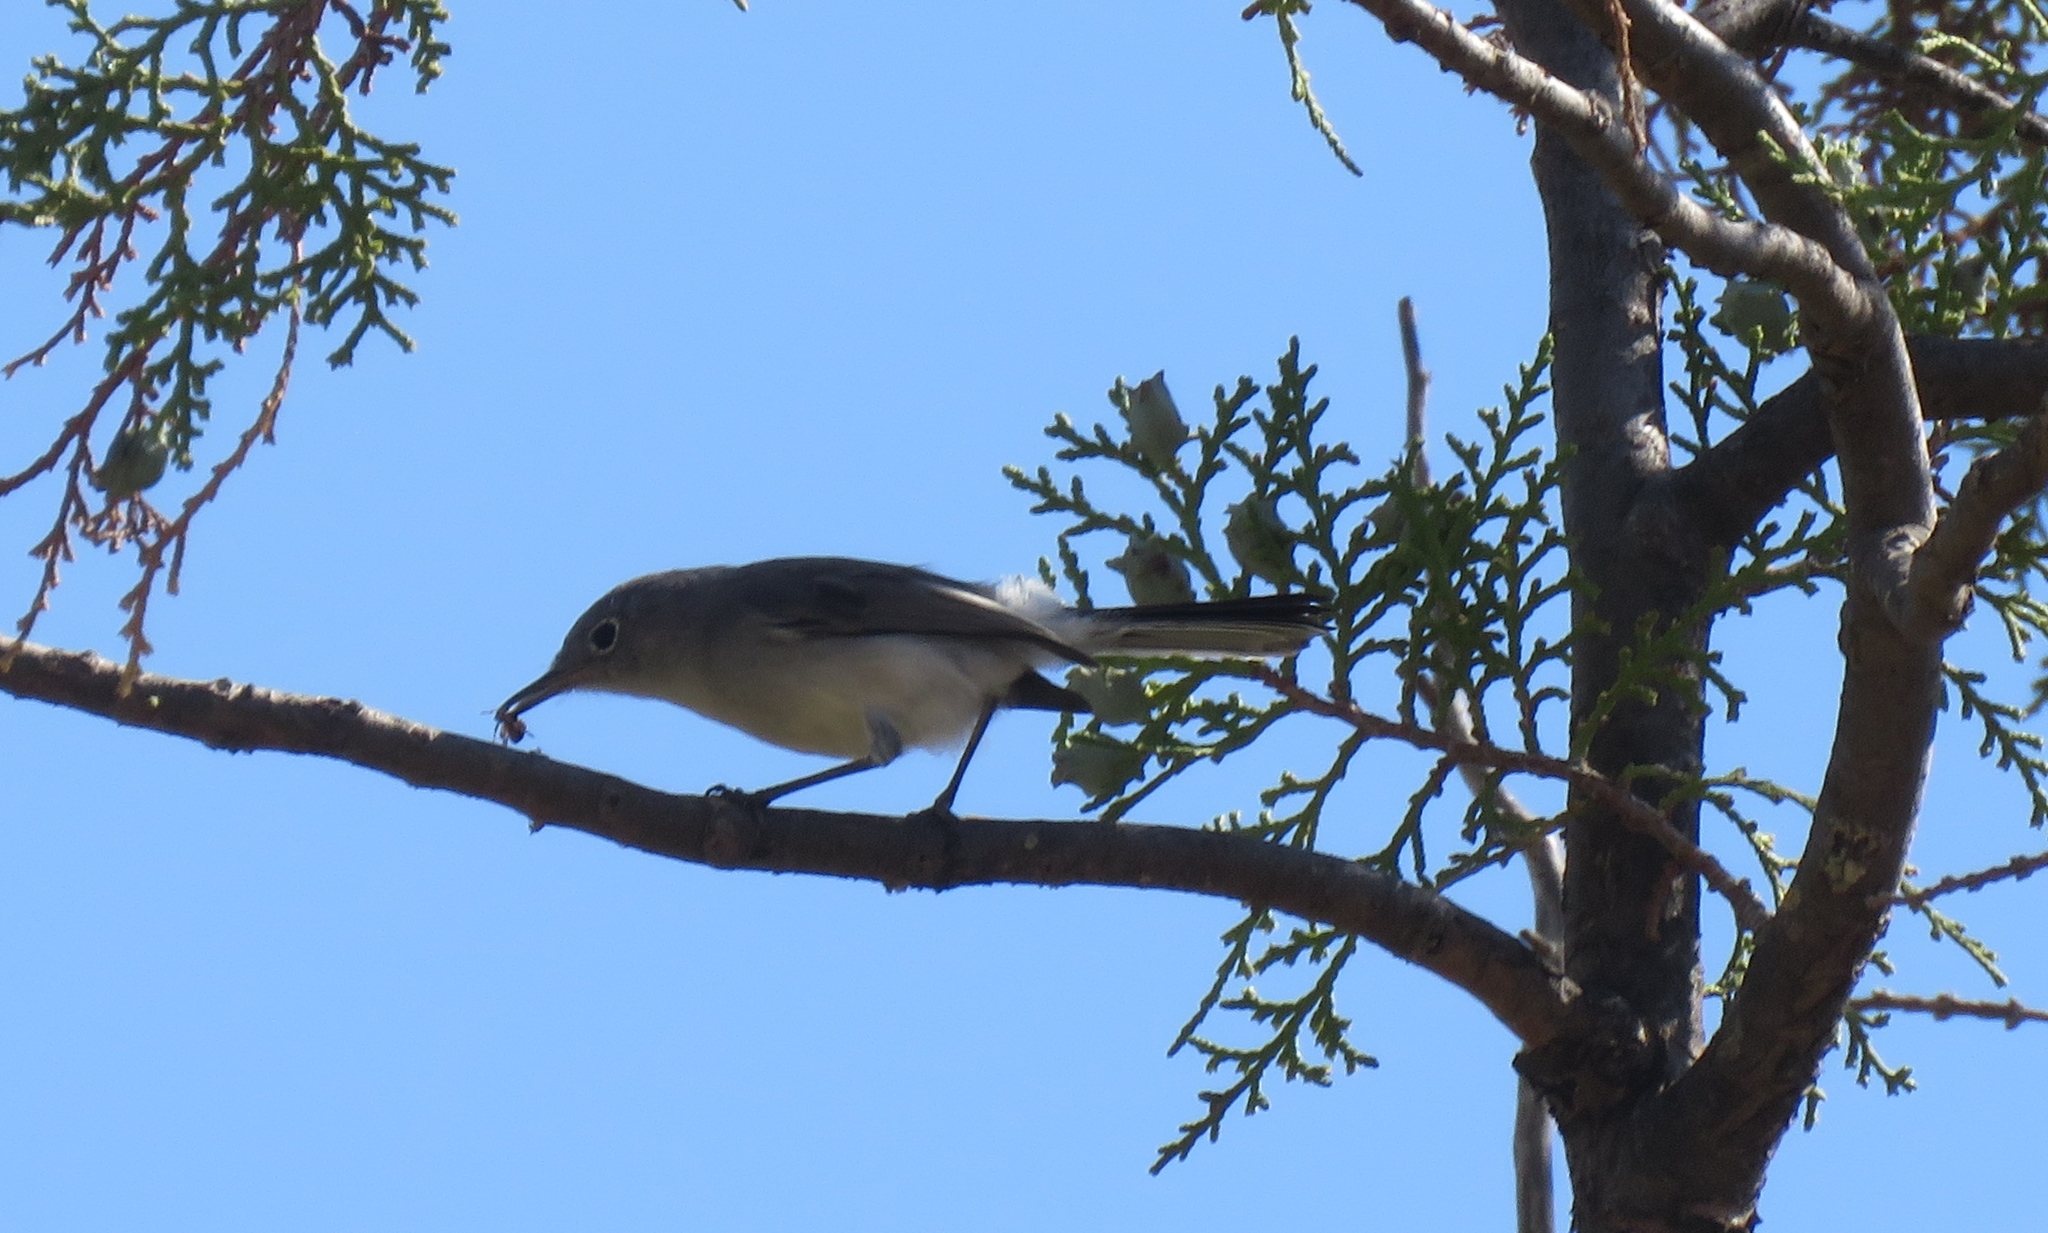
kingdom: Animalia
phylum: Chordata
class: Aves
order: Passeriformes
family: Polioptilidae
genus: Polioptila
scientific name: Polioptila caerulea
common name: Blue-gray gnatcatcher
